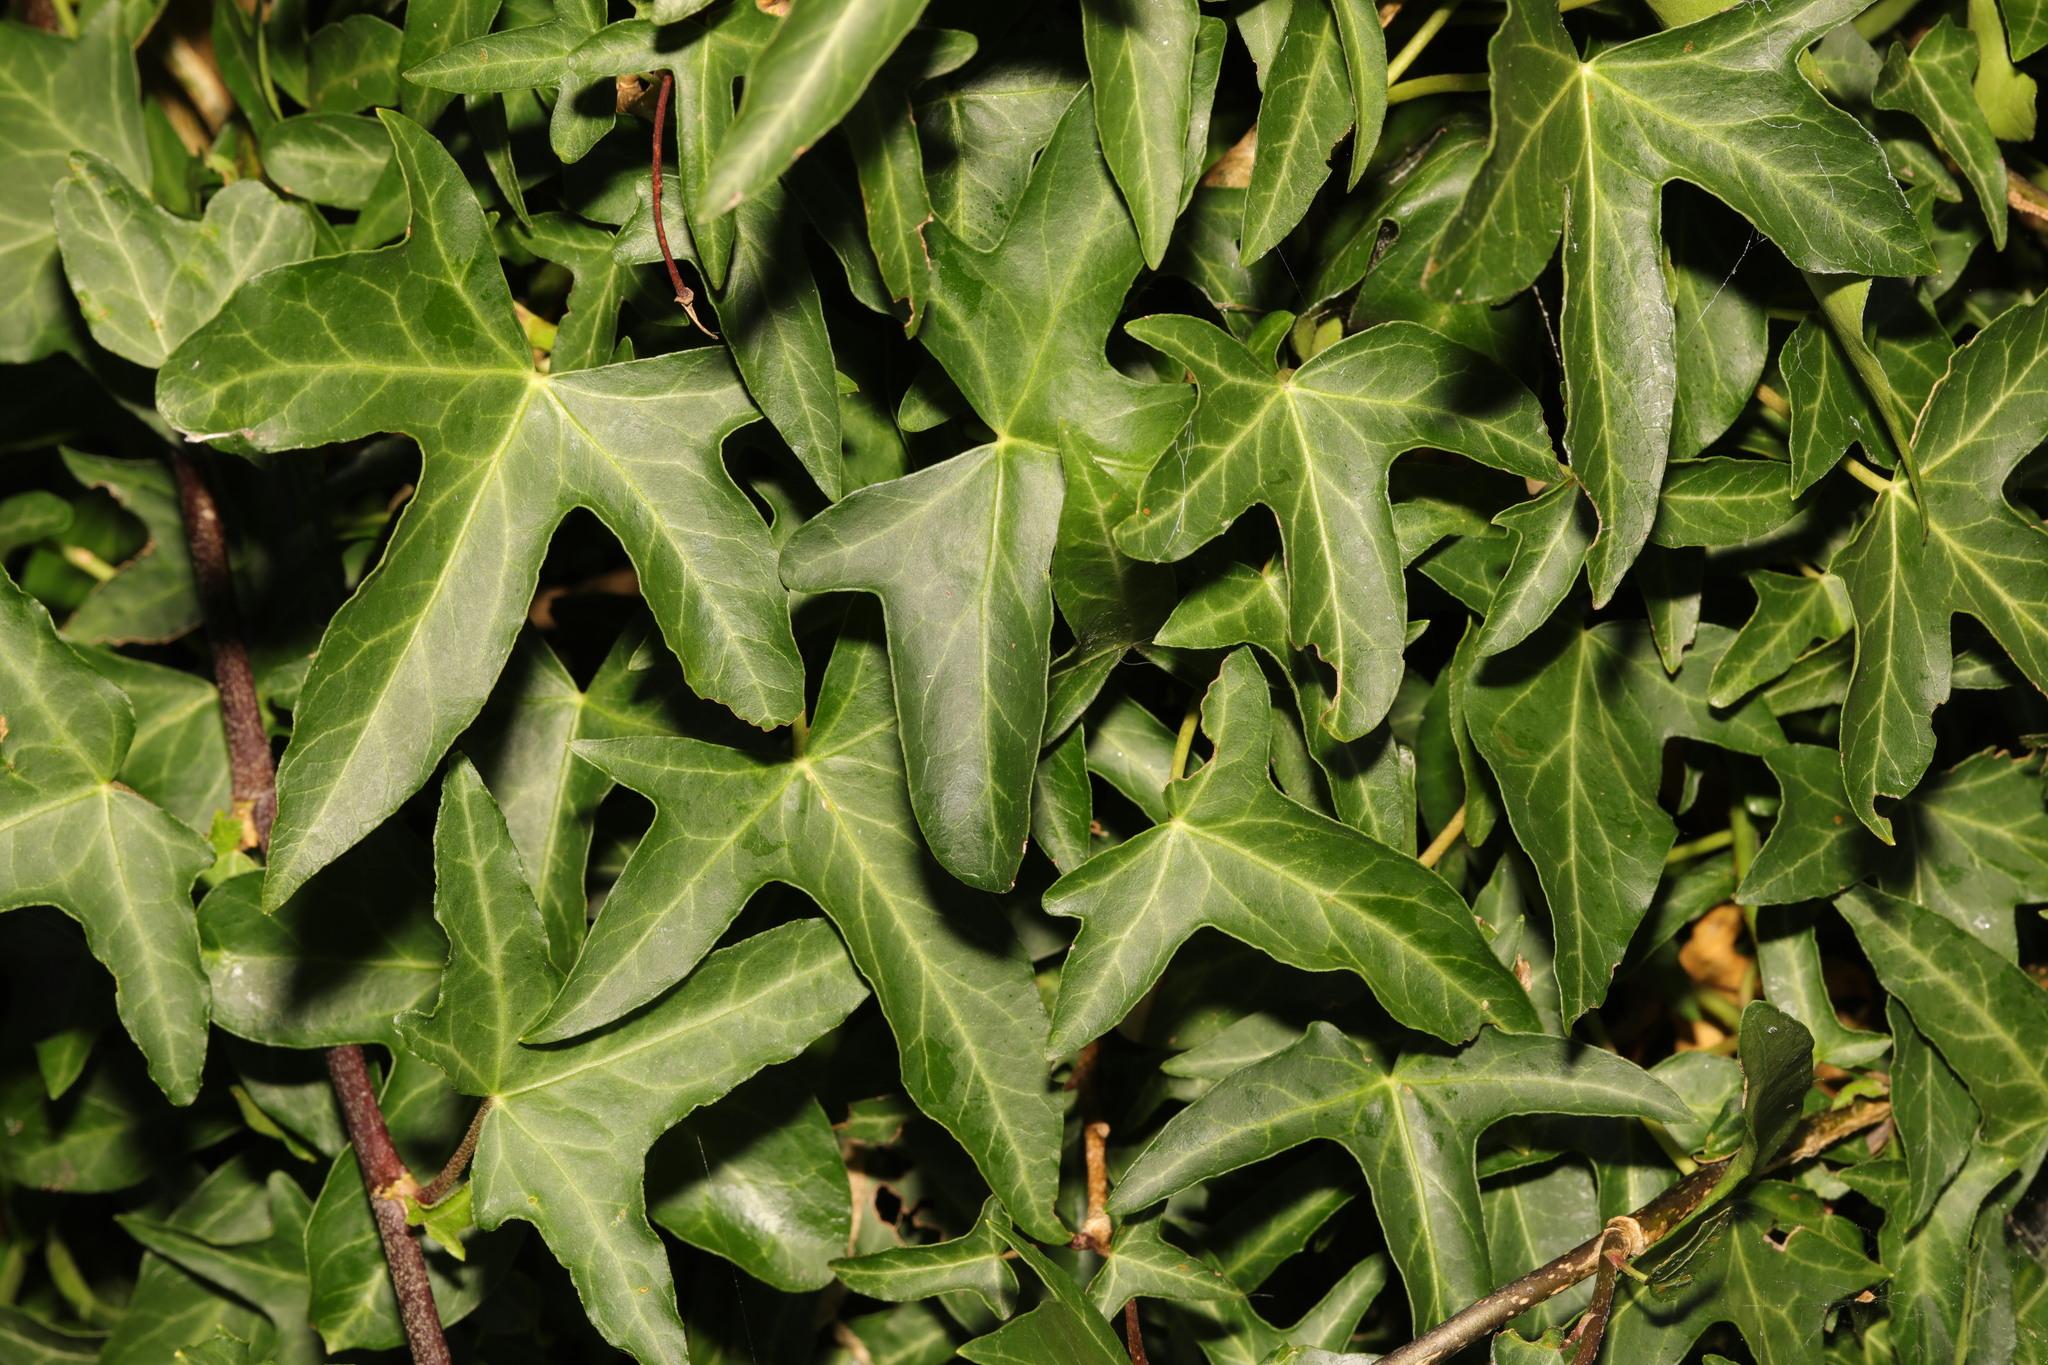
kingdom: Plantae
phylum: Tracheophyta
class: Magnoliopsida
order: Apiales
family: Araliaceae
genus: Hedera
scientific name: Hedera helix
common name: Ivy
